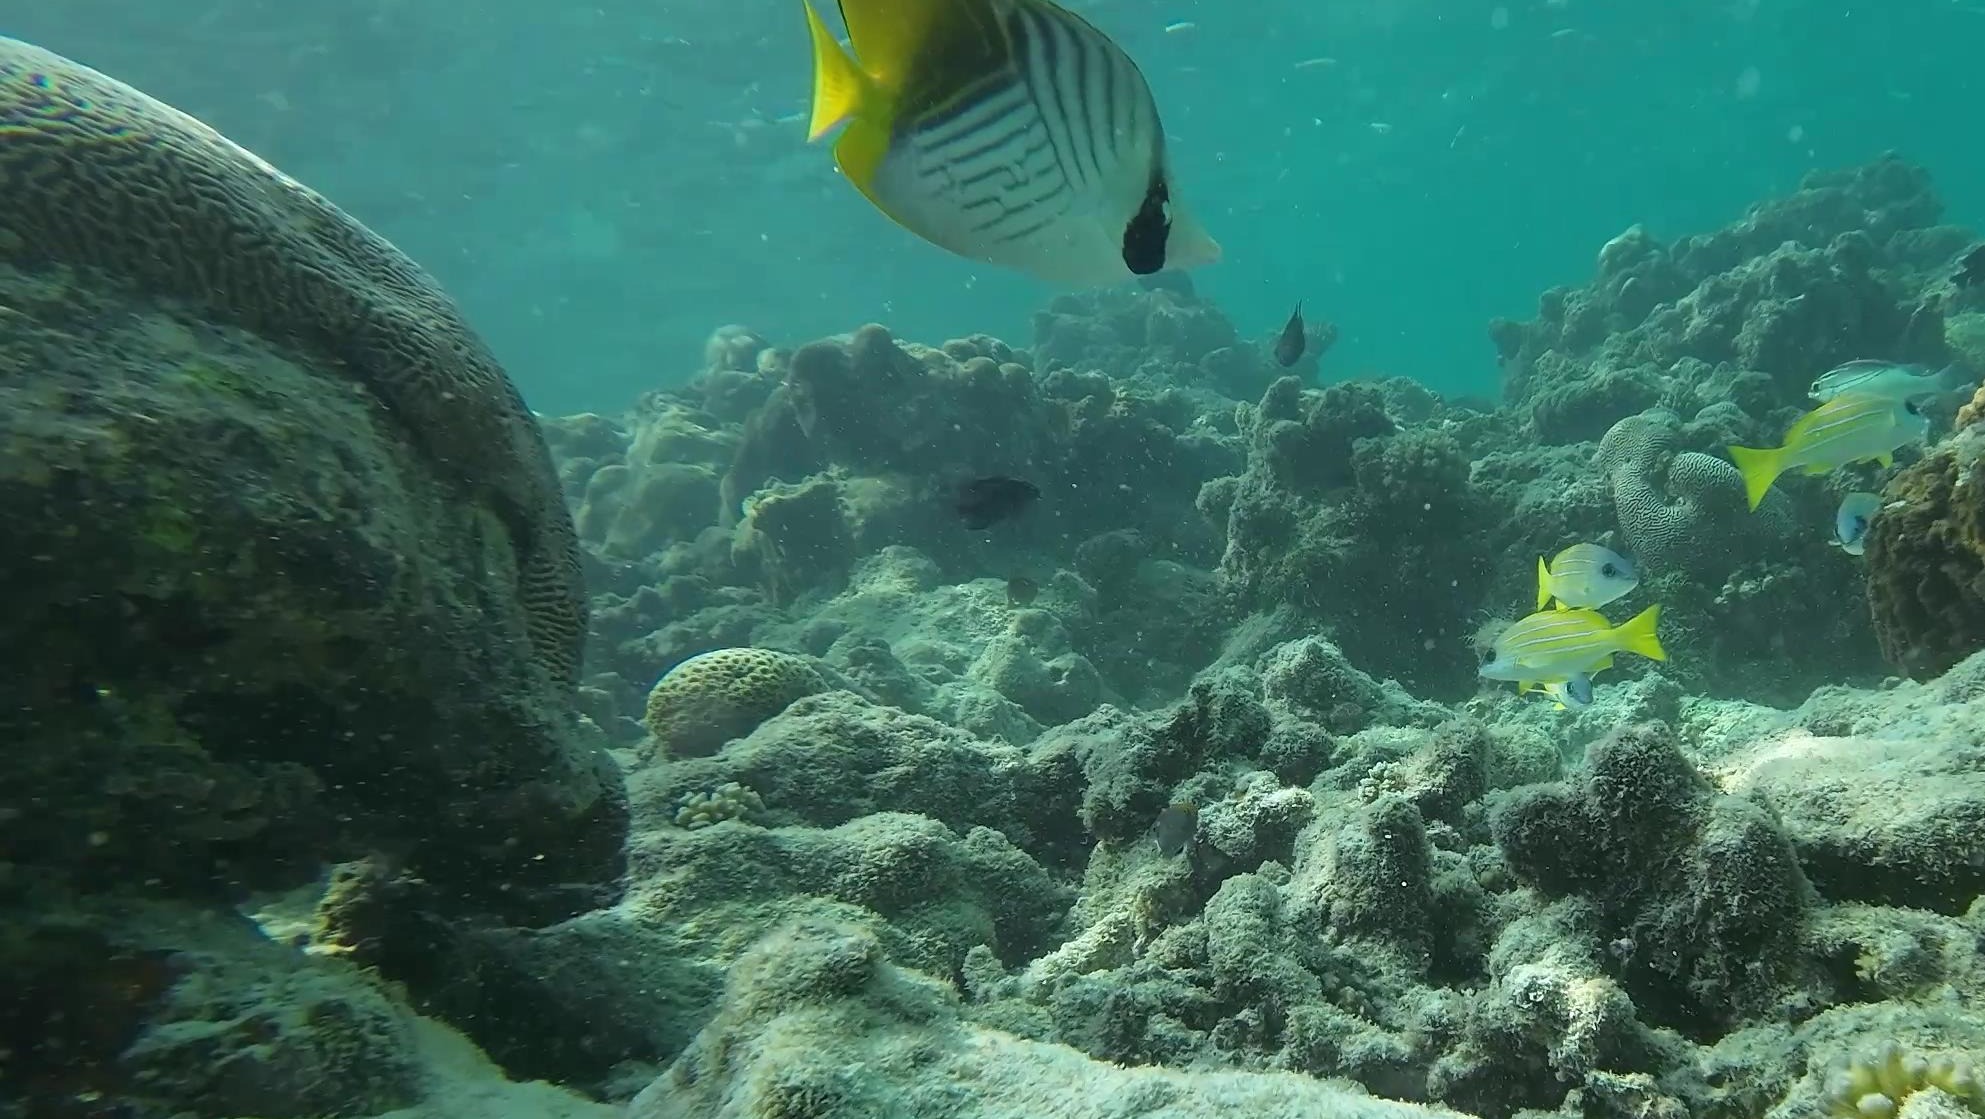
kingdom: Animalia
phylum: Chordata
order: Perciformes
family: Chaetodontidae
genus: Chaetodon
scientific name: Chaetodon auriga
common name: Threadfin butterflyfish
